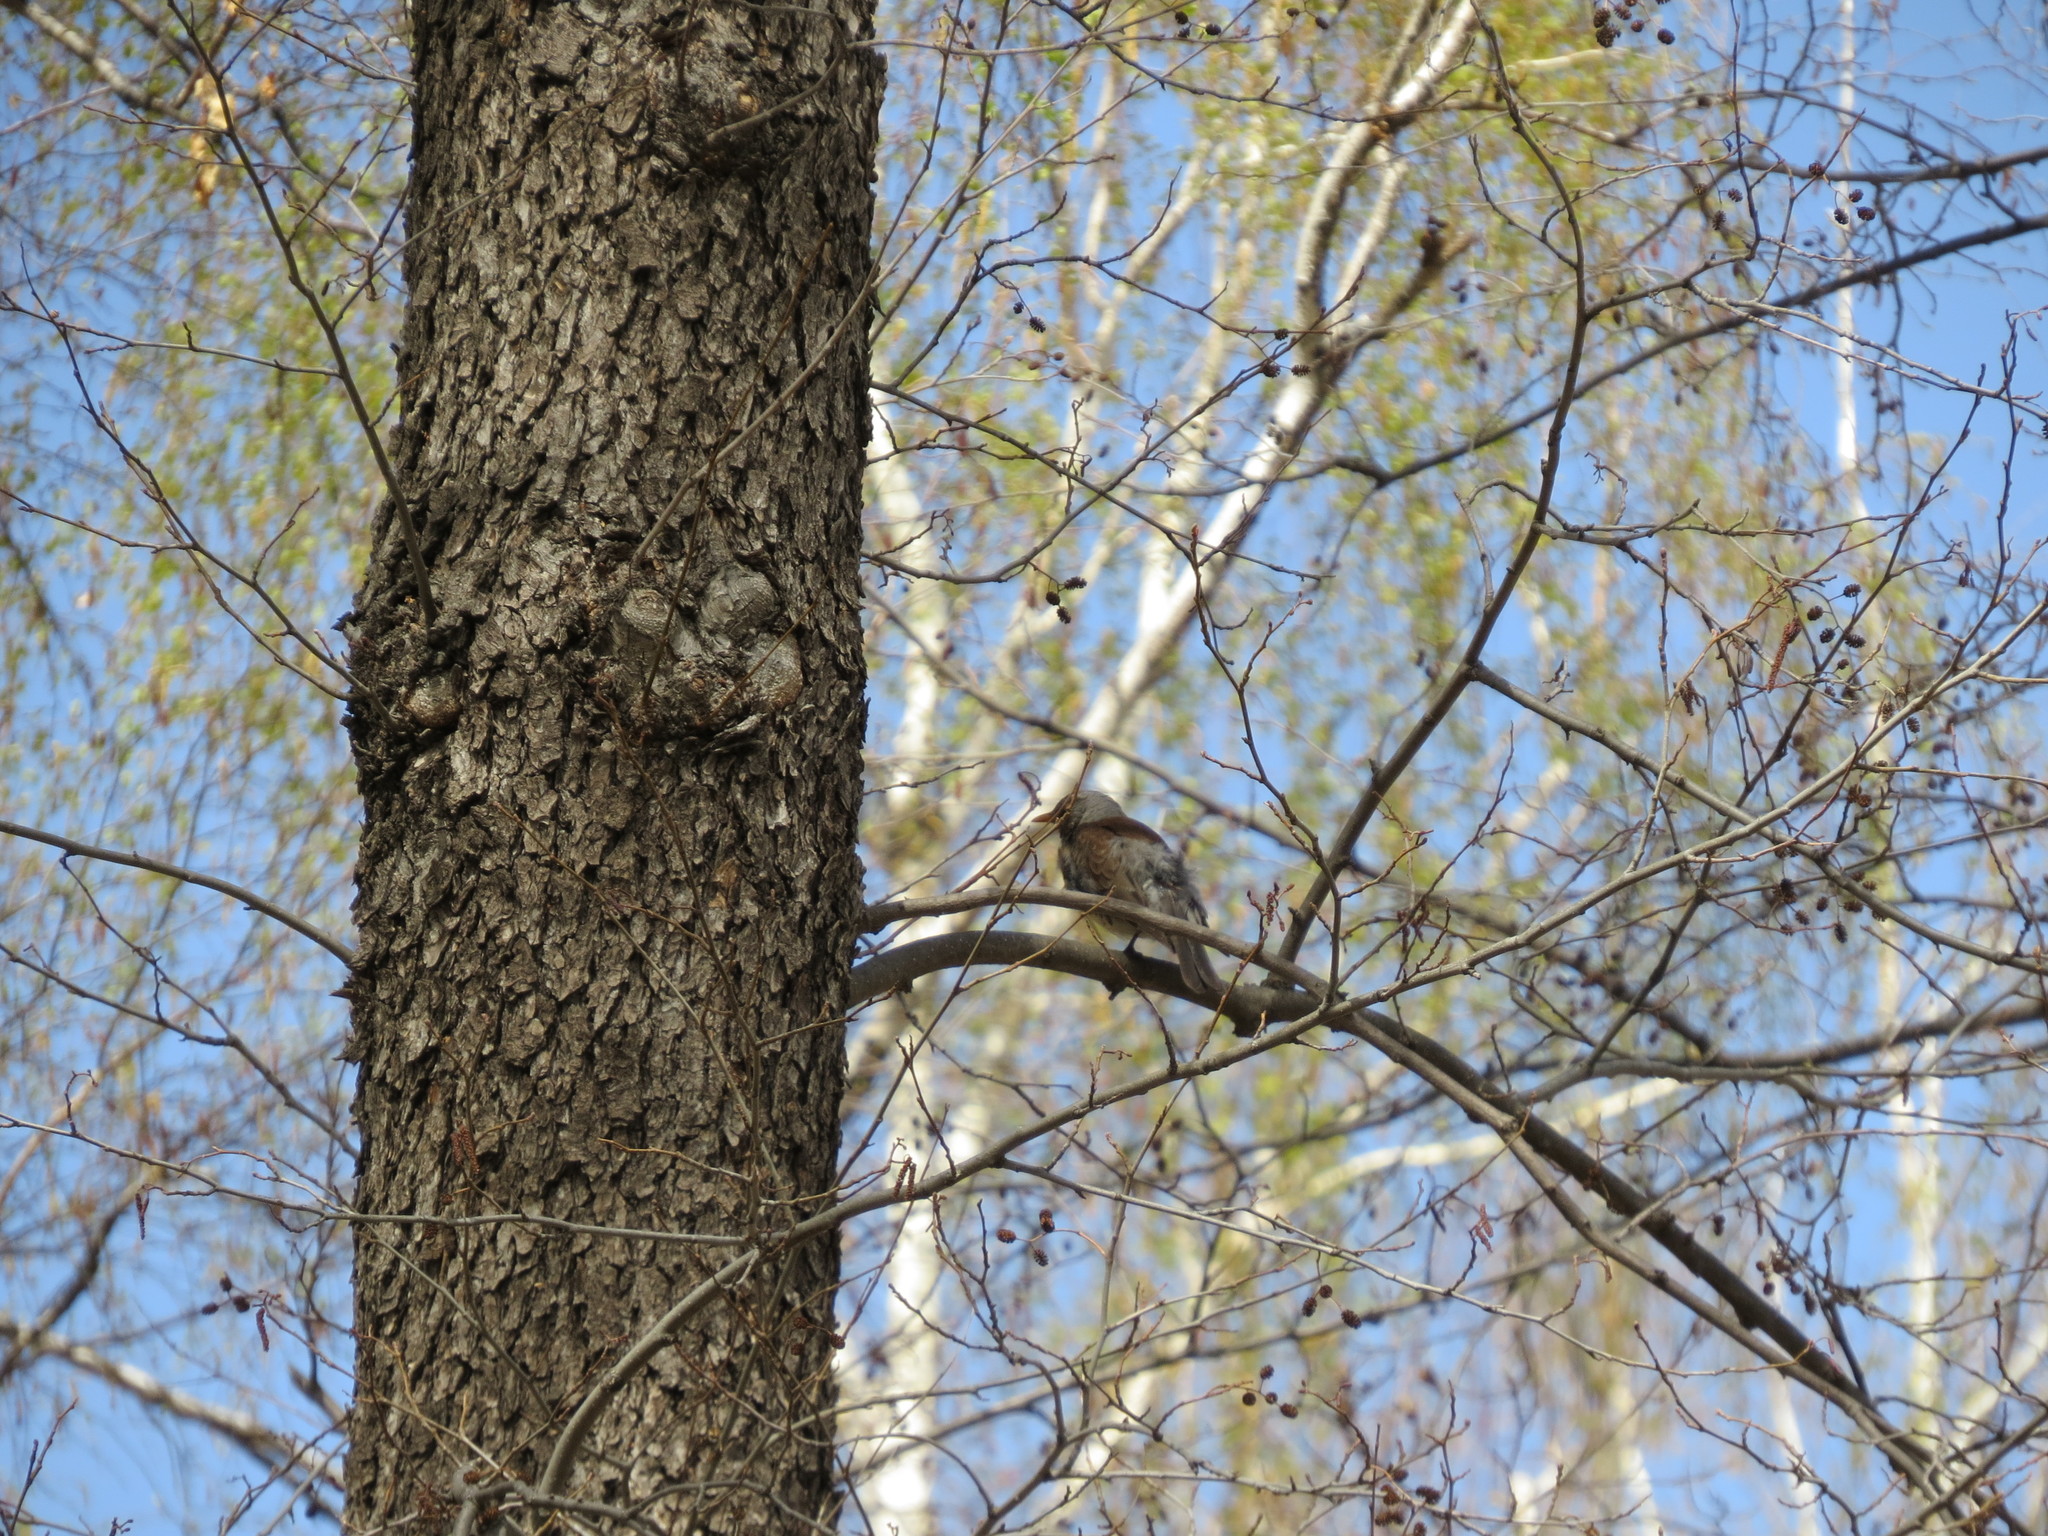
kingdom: Animalia
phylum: Chordata
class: Aves
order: Passeriformes
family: Turdidae
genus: Turdus
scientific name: Turdus pilaris
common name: Fieldfare
